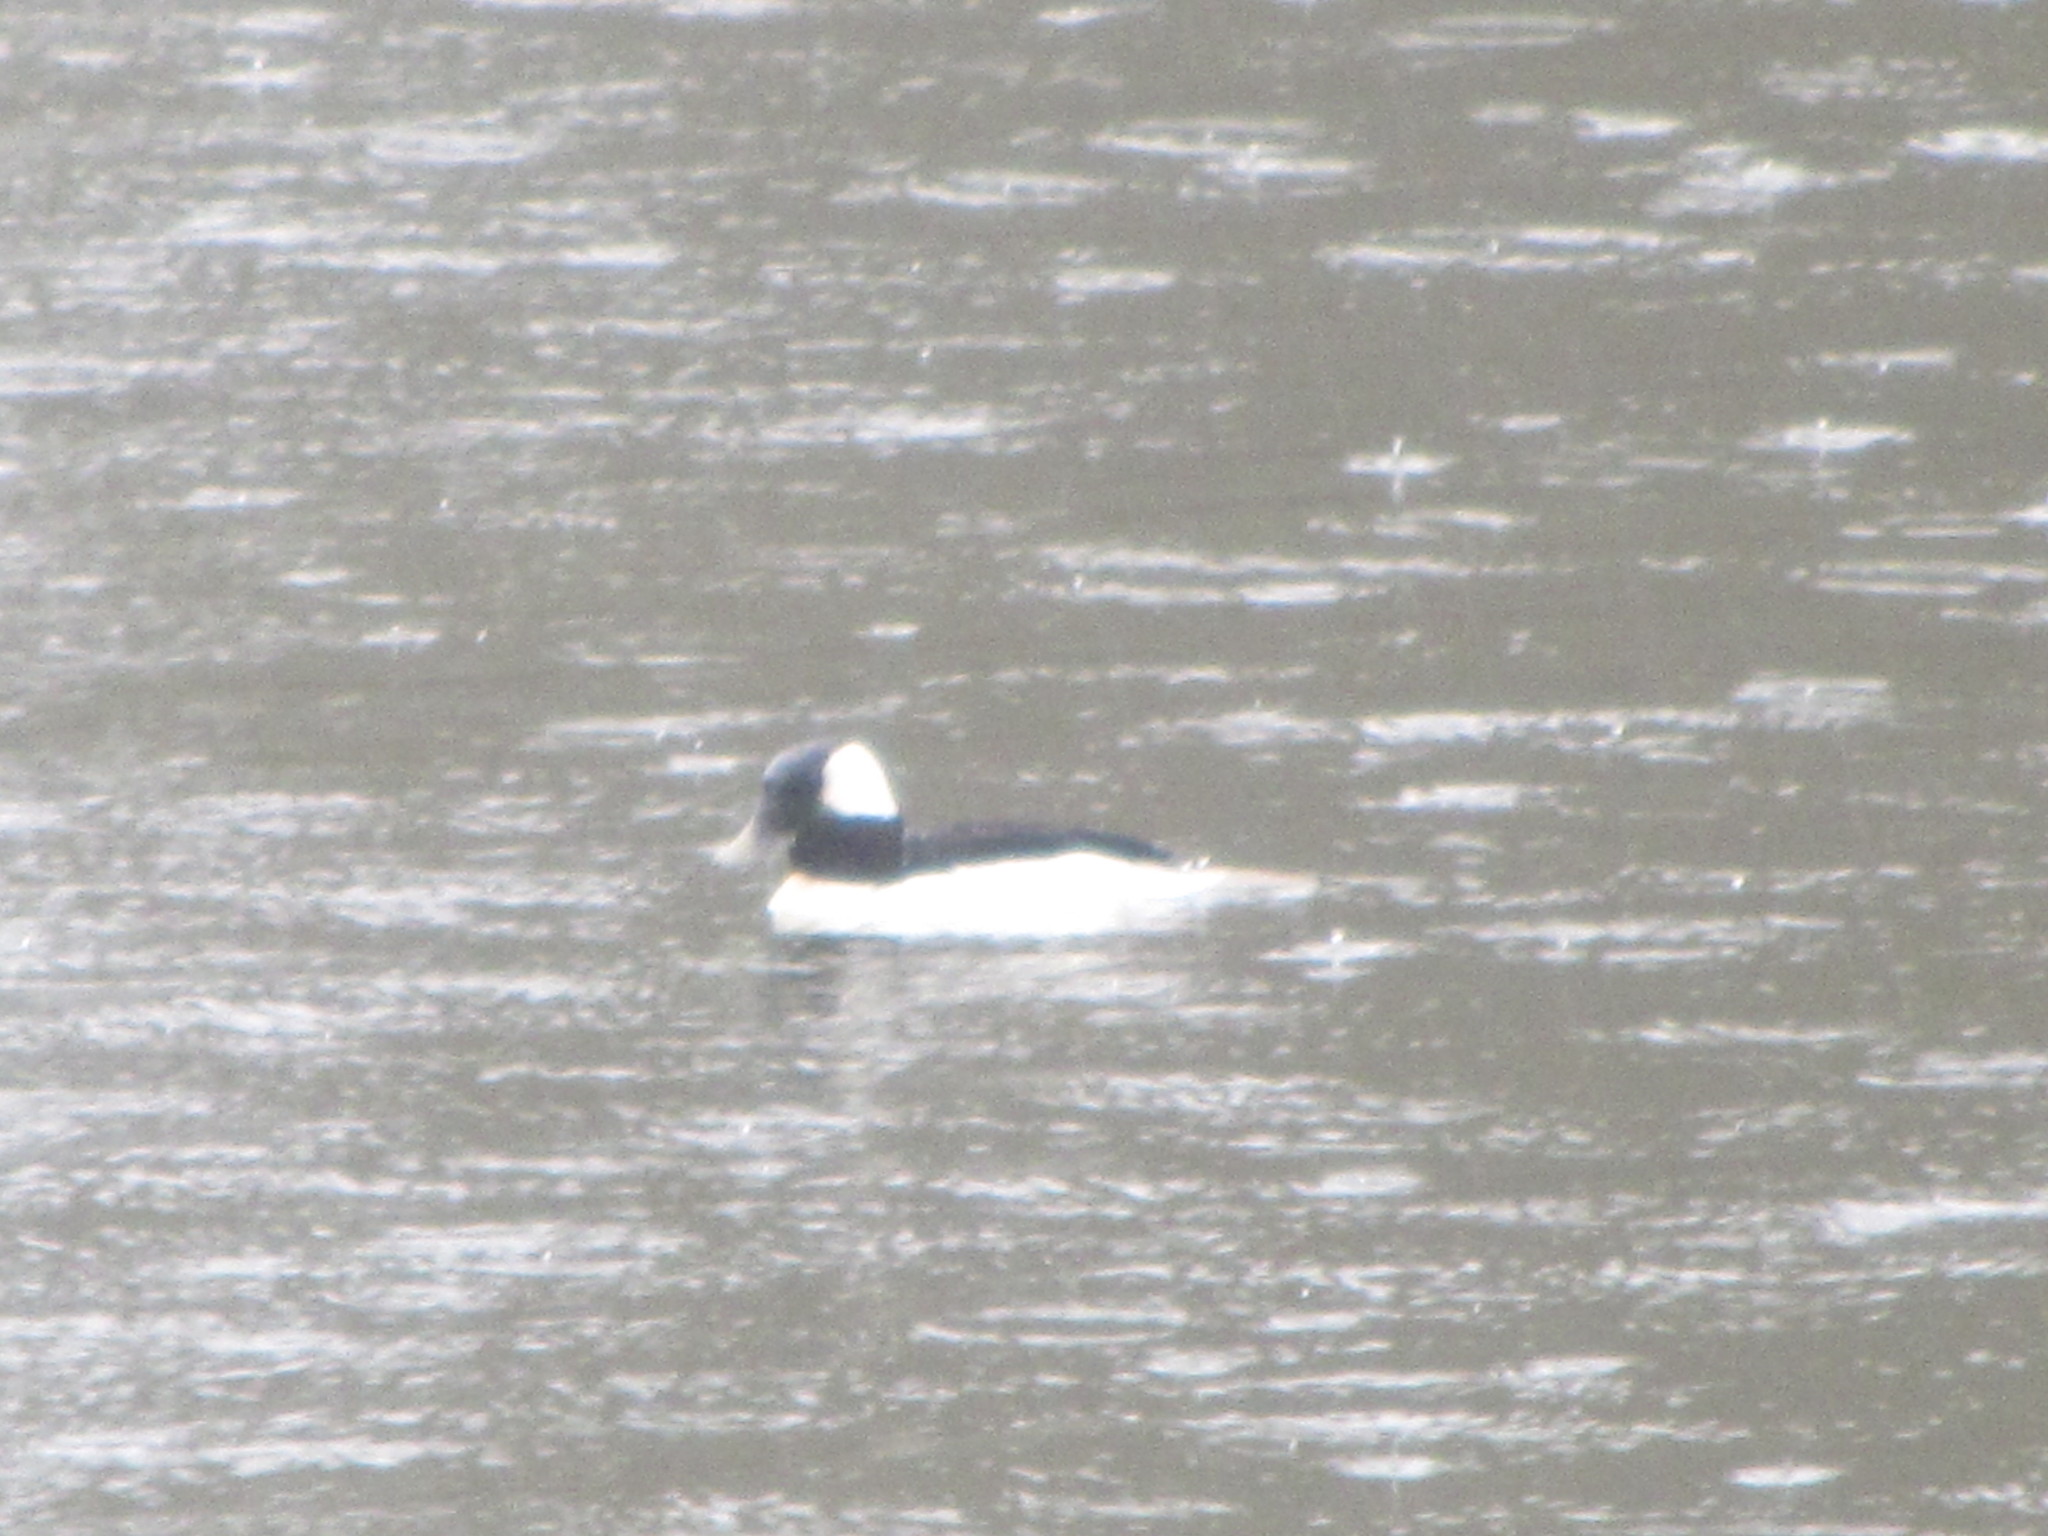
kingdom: Animalia
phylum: Chordata
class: Aves
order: Anseriformes
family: Anatidae
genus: Bucephala
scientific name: Bucephala albeola
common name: Bufflehead
